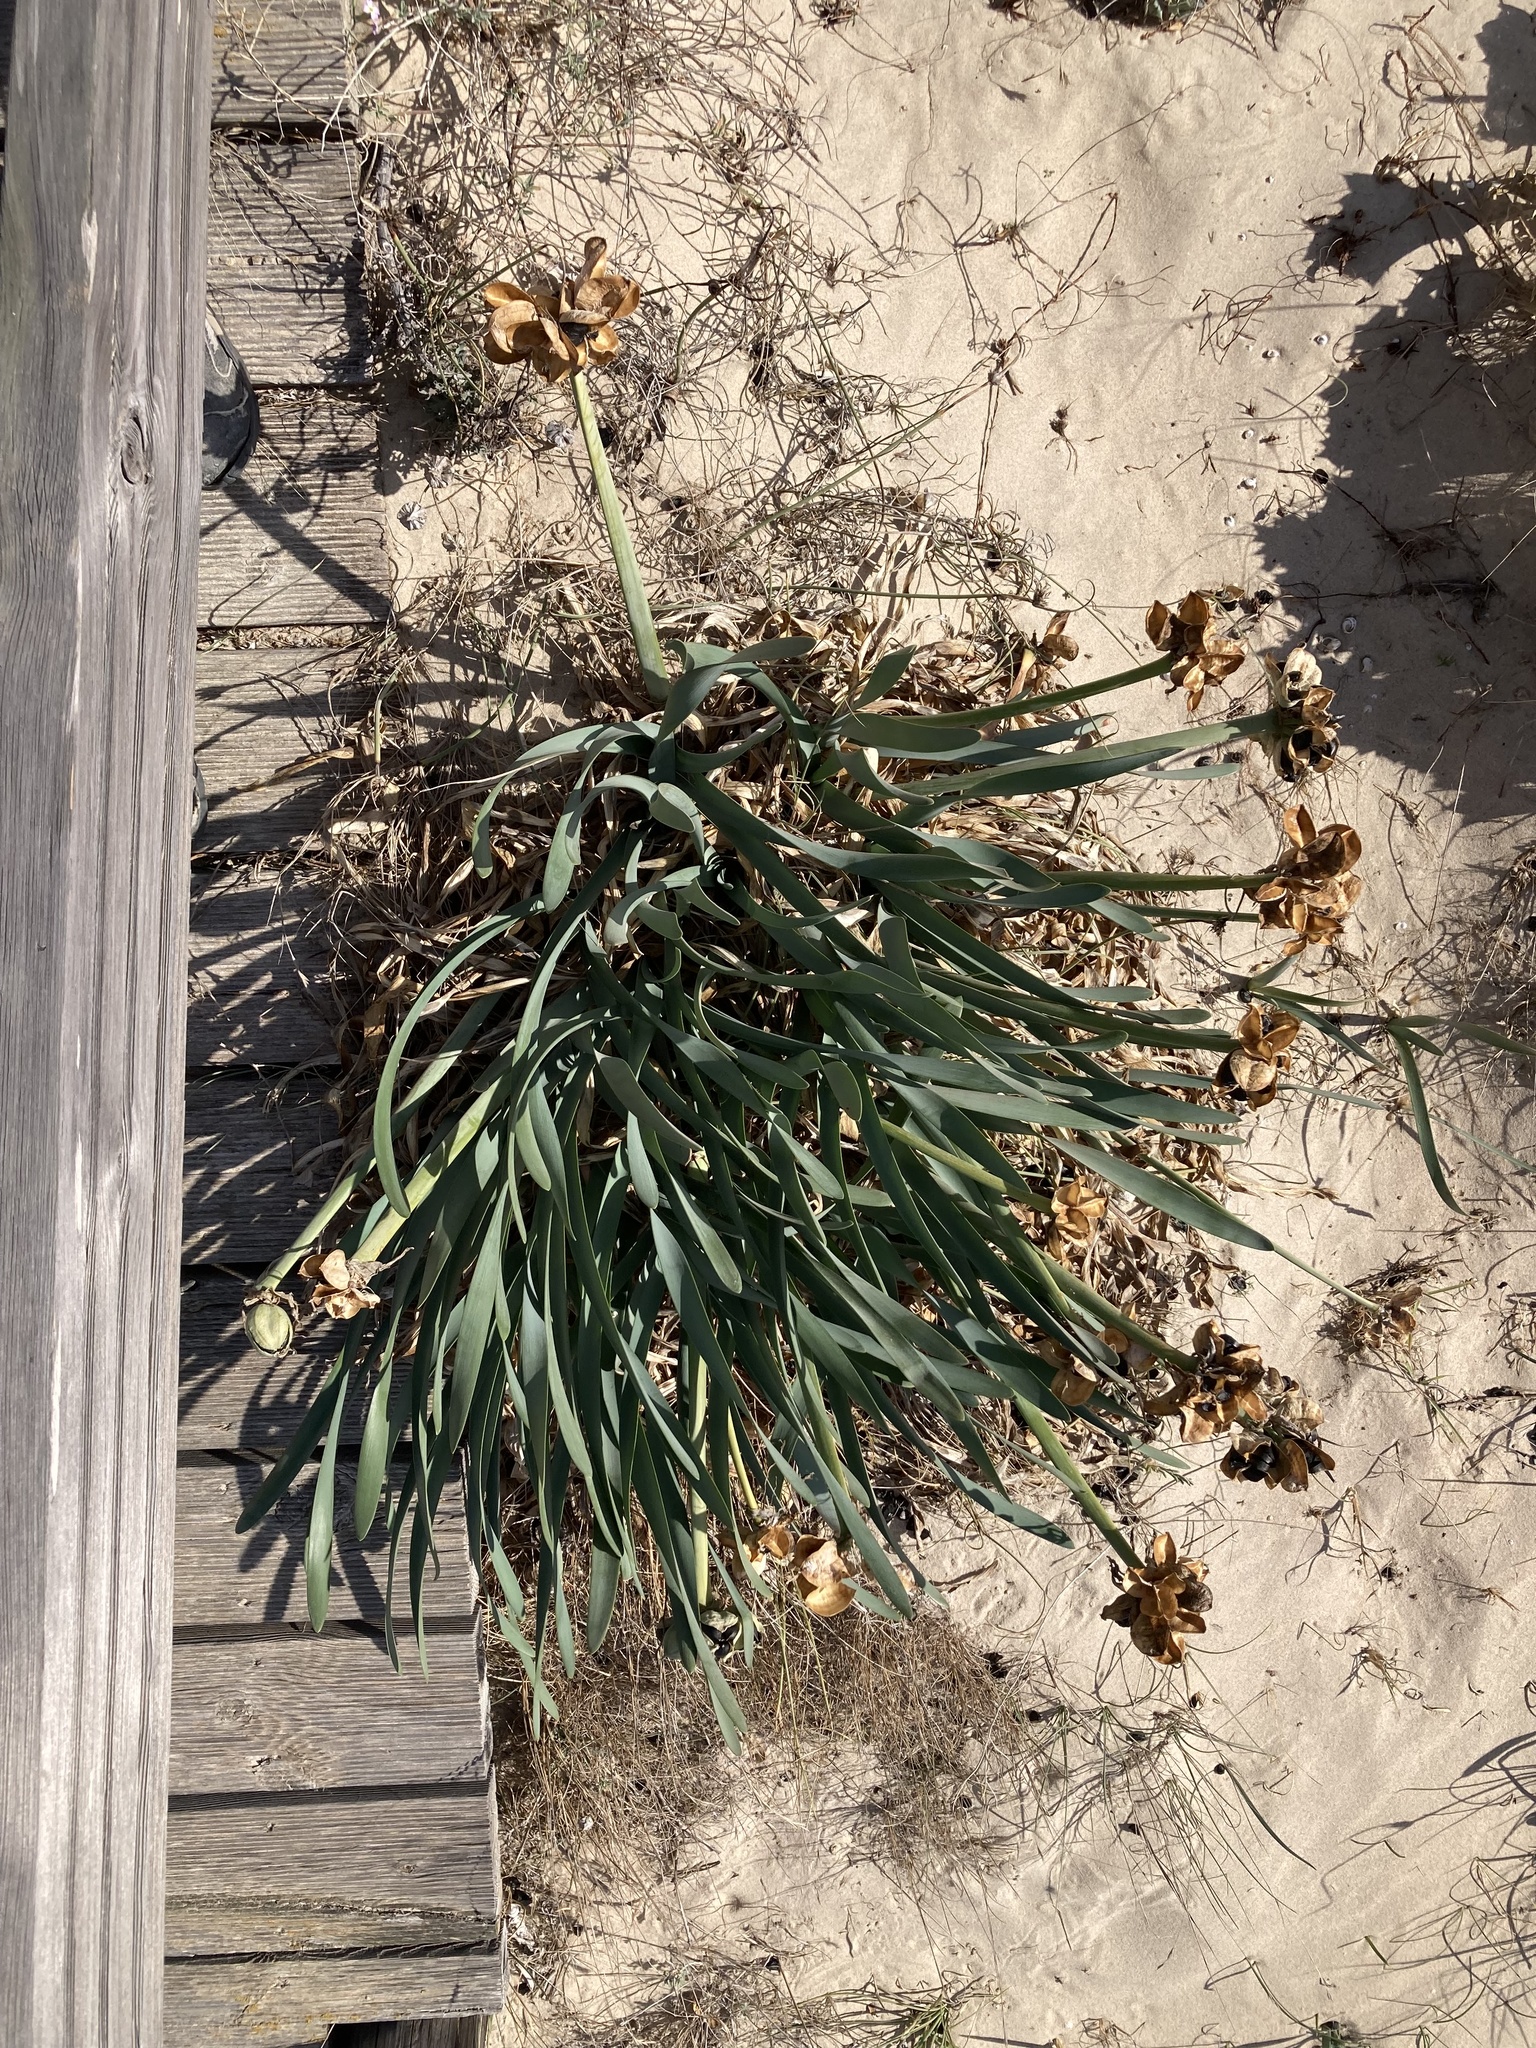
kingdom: Plantae
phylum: Tracheophyta
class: Liliopsida
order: Asparagales
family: Amaryllidaceae
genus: Pancratium
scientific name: Pancratium maritimum
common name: Sea-daffodil
